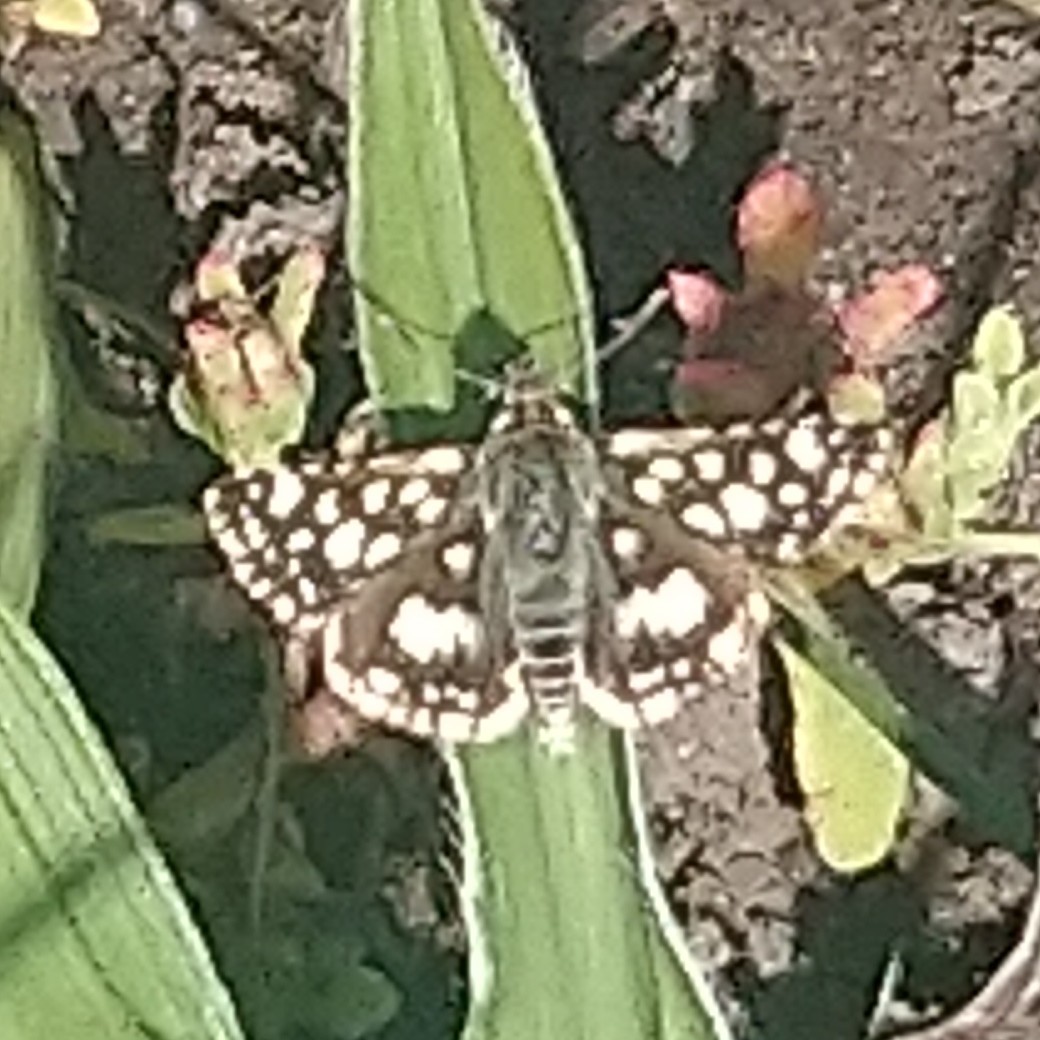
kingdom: Animalia
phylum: Arthropoda
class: Insecta
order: Lepidoptera
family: Hesperiidae
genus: Spialia
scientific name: Spialia spio
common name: Mountain sandman
